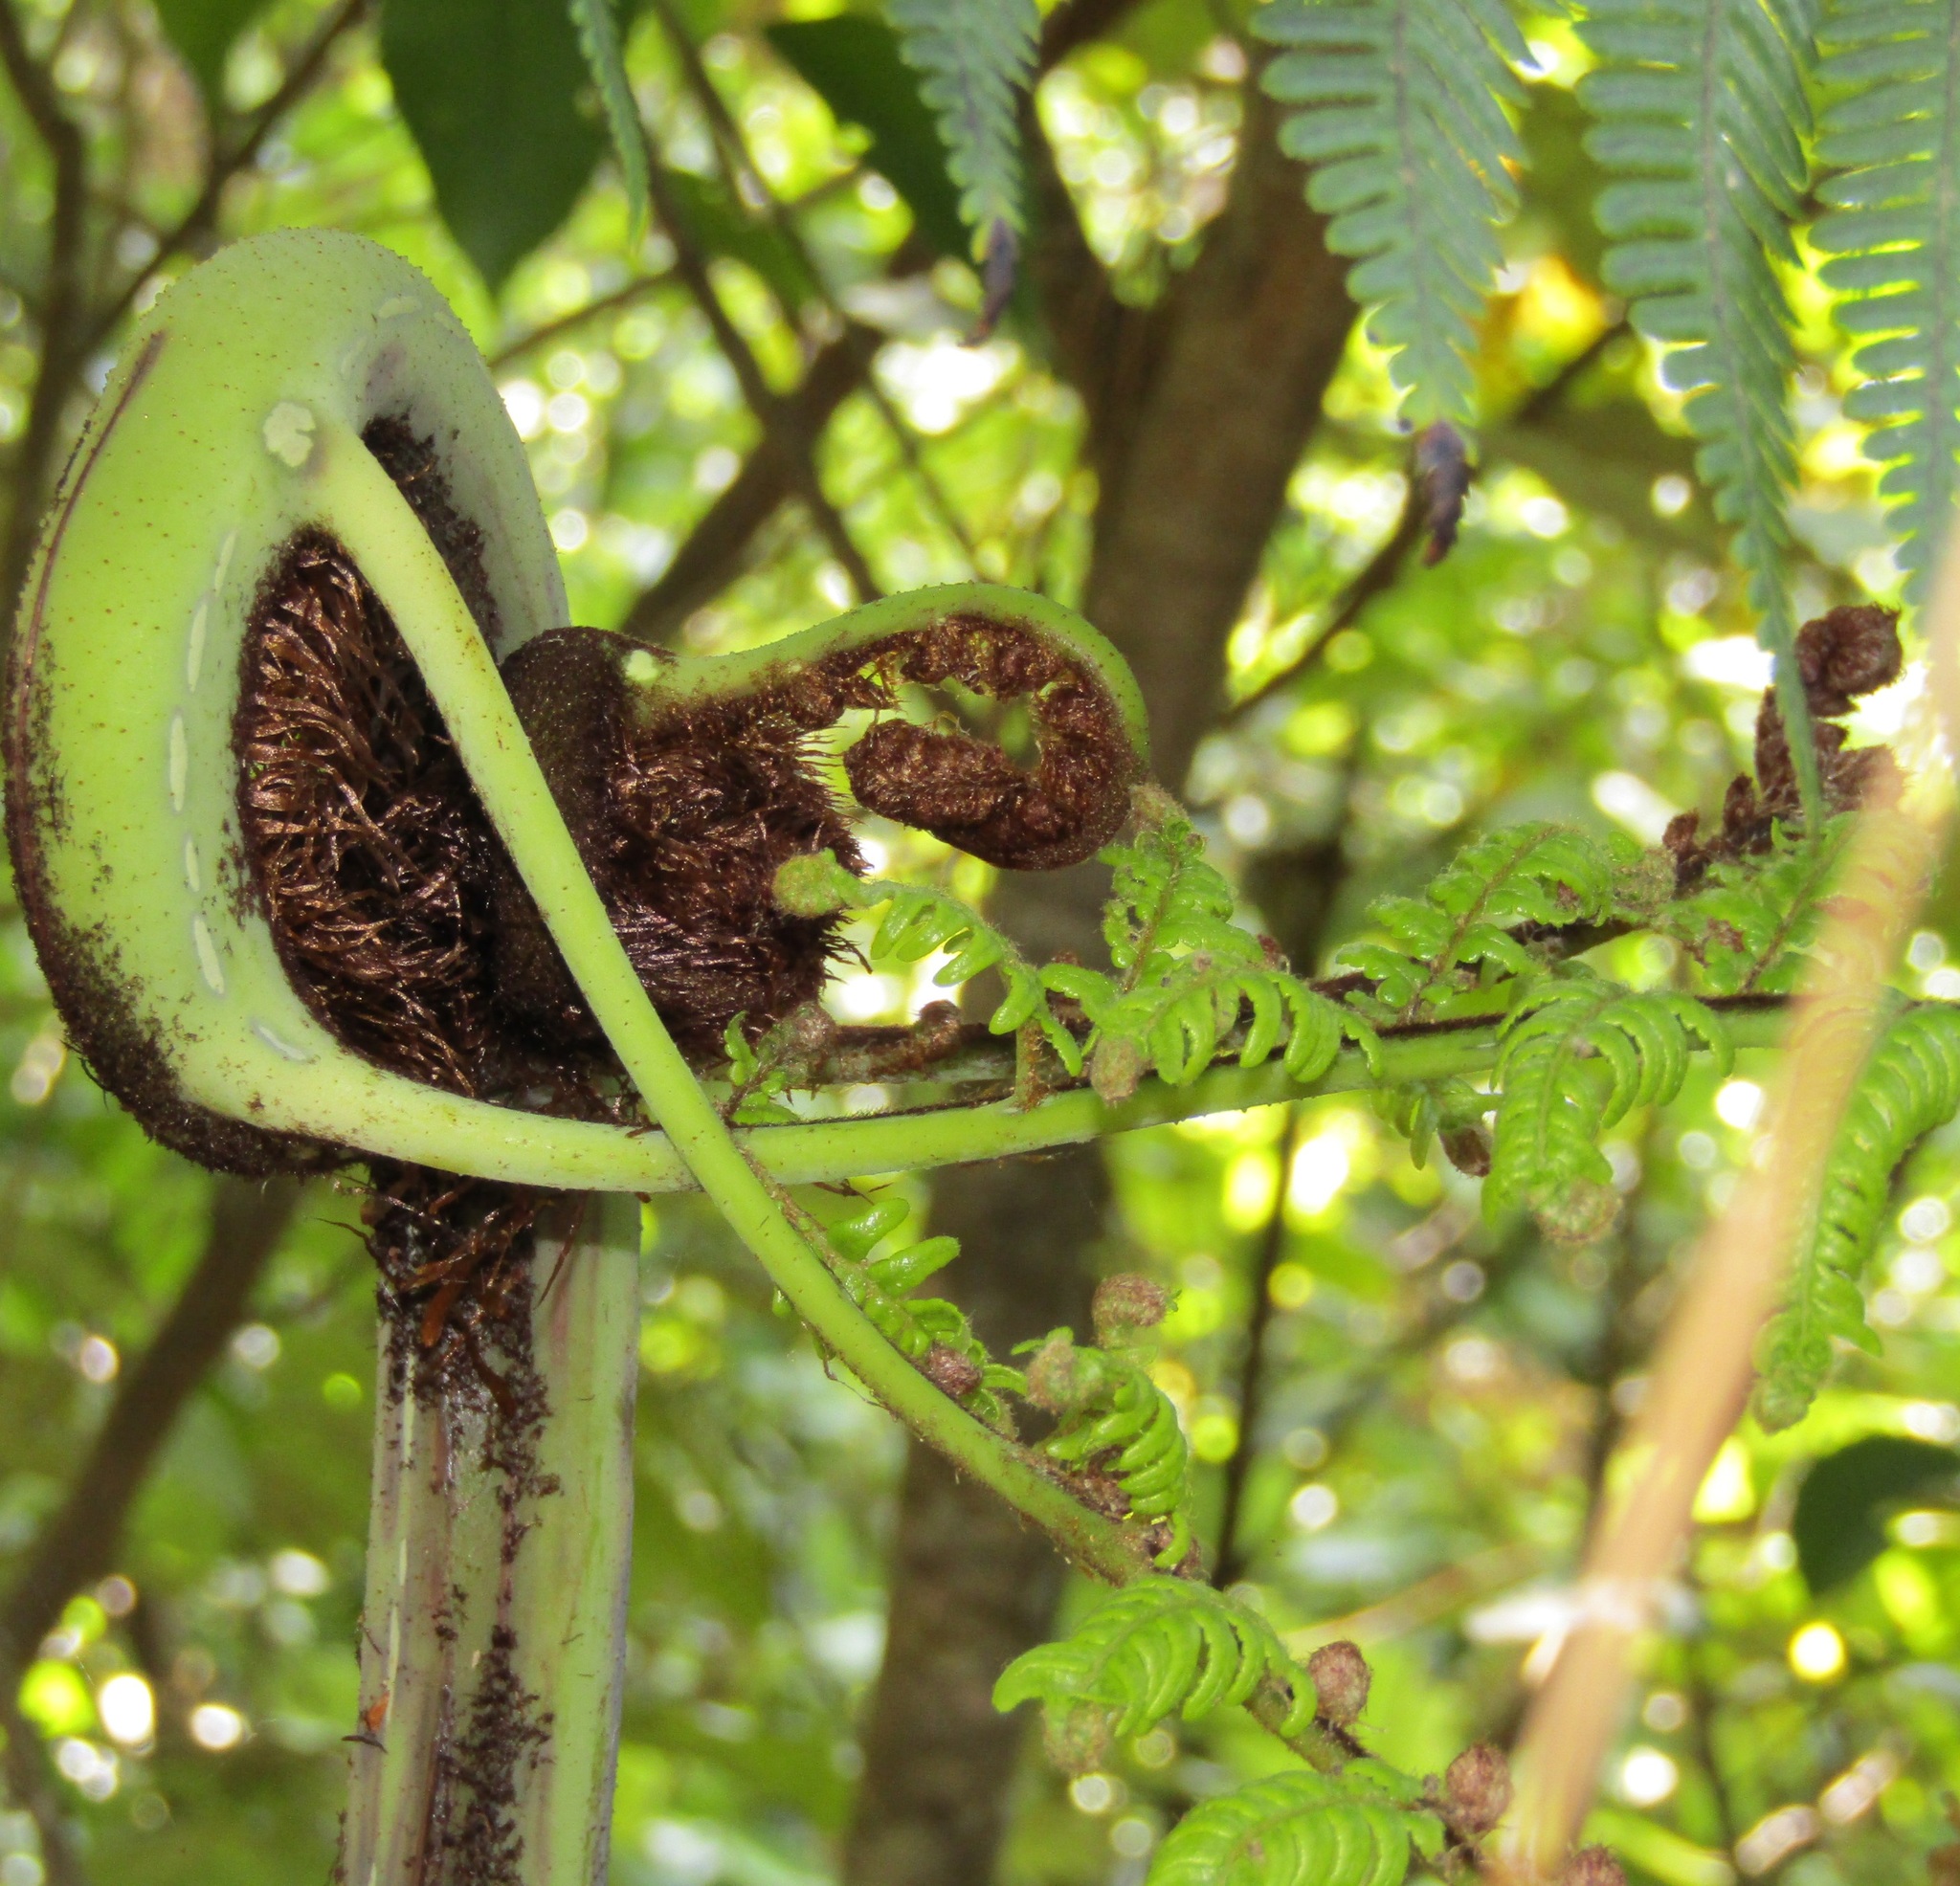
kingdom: Plantae
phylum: Tracheophyta
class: Polypodiopsida
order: Cyatheales
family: Cyatheaceae
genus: Sphaeropteris
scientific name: Sphaeropteris medullaris
